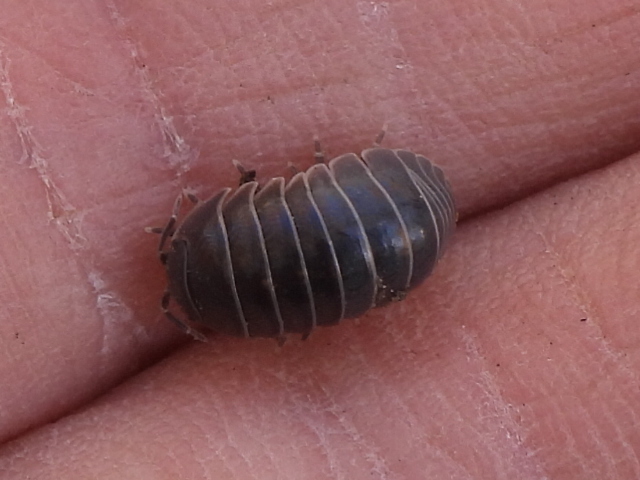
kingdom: Animalia
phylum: Arthropoda
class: Malacostraca
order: Isopoda
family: Armadillidiidae
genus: Armadillidium
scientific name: Armadillidium vulgare
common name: Common pill woodlouse
